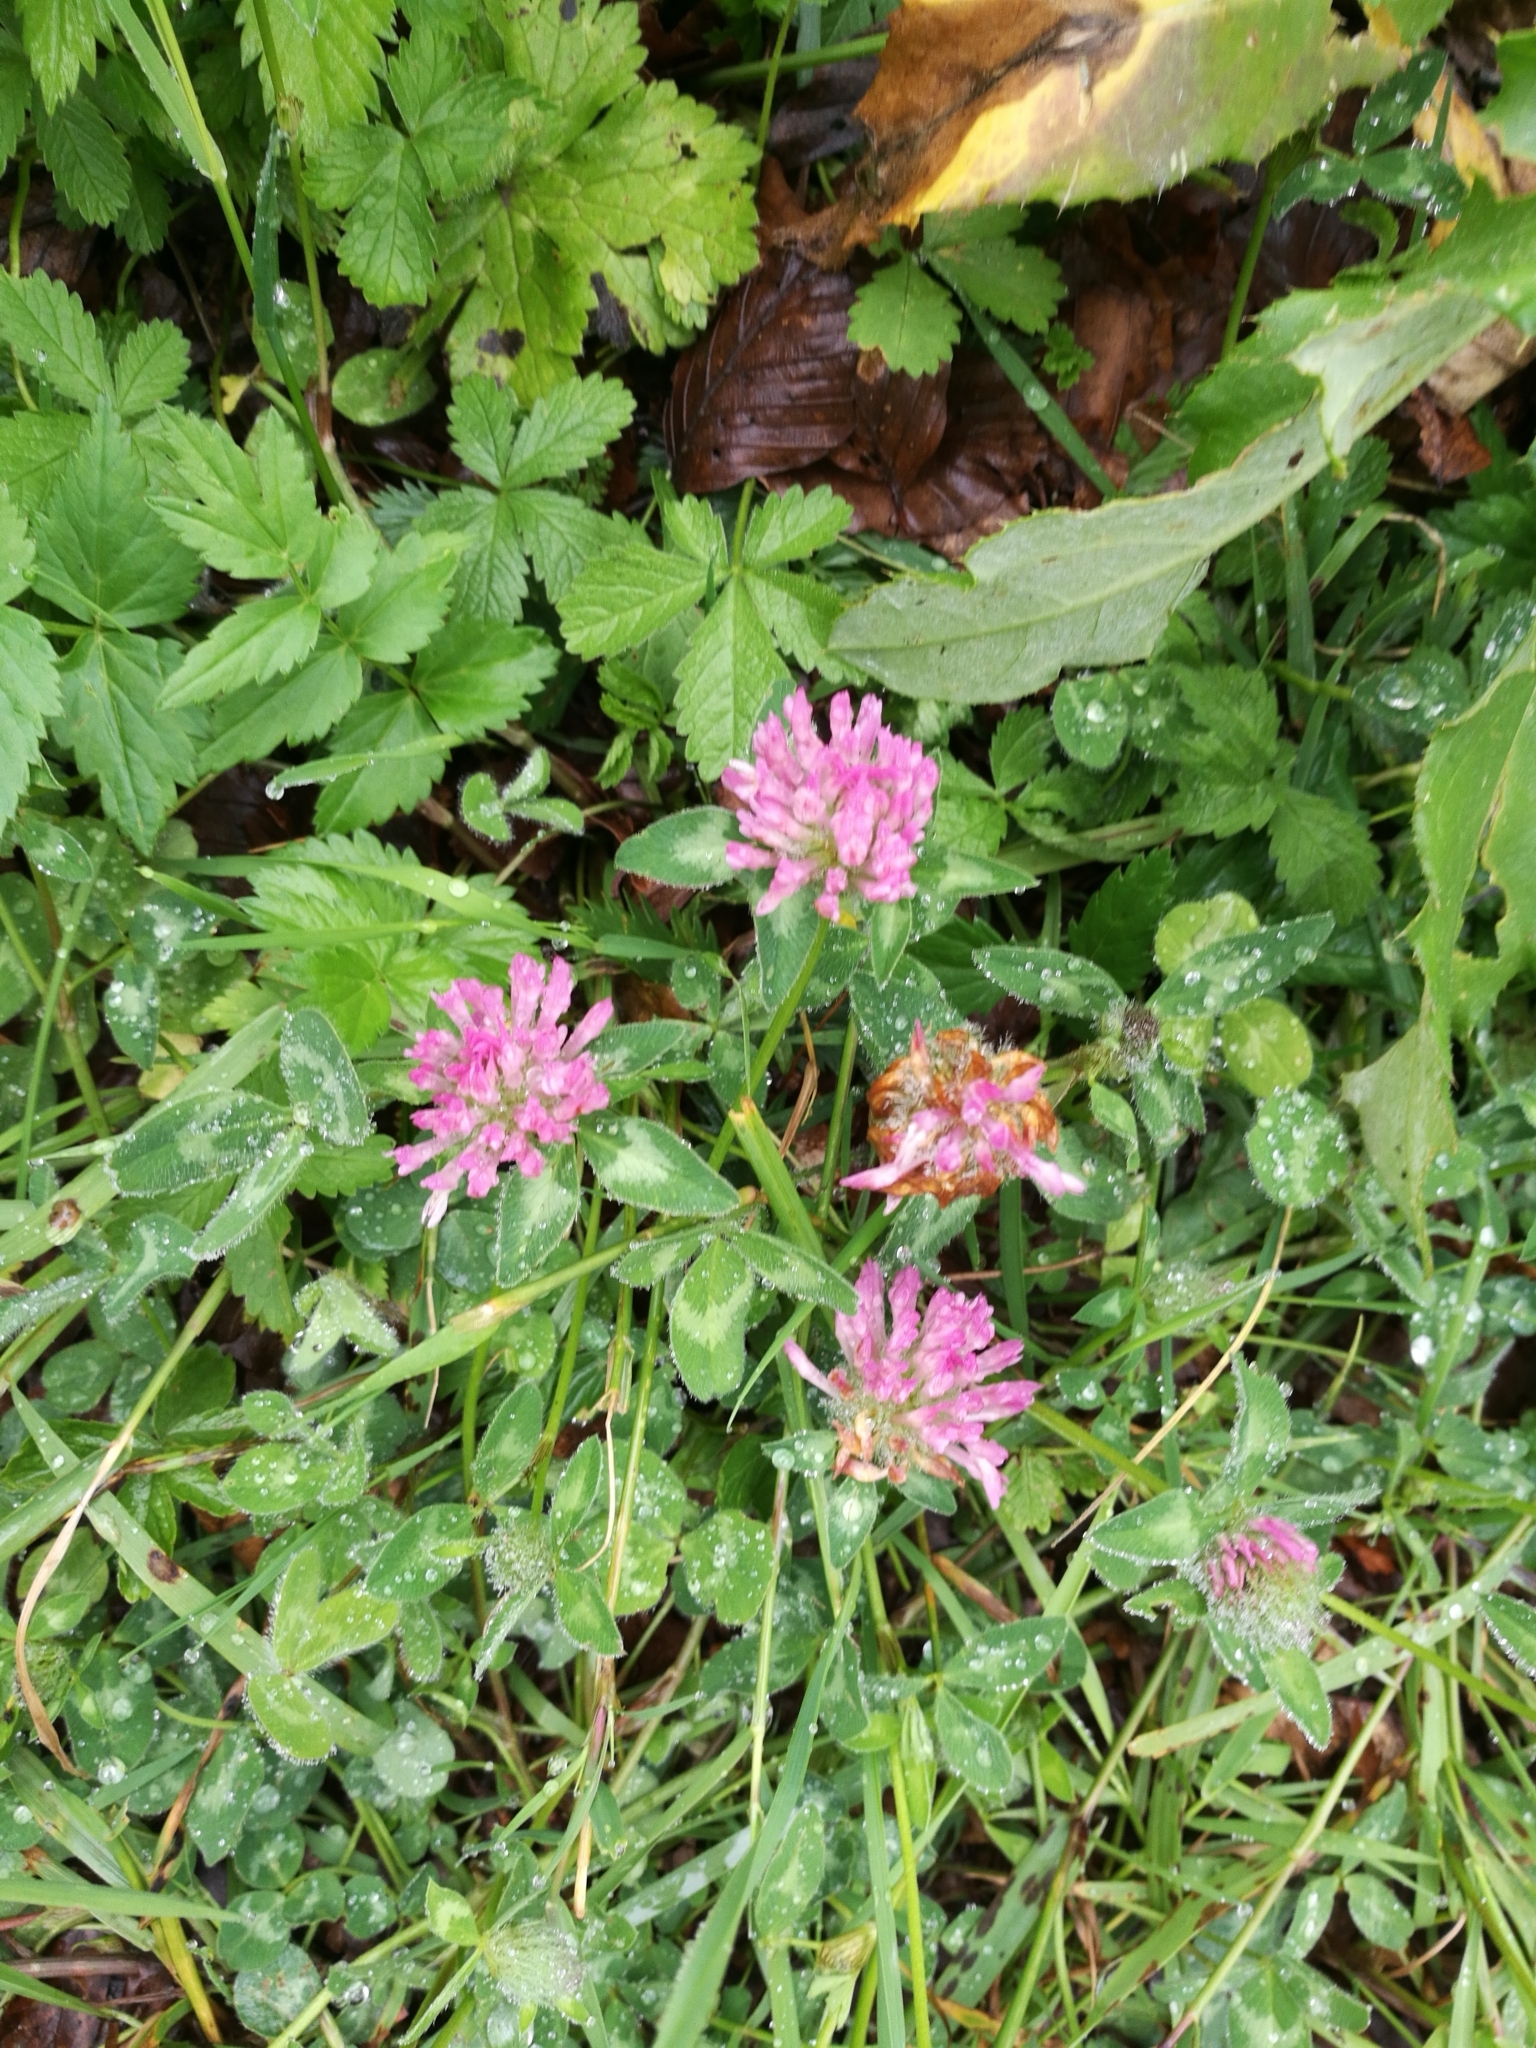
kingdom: Plantae
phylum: Tracheophyta
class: Magnoliopsida
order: Fabales
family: Fabaceae
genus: Trifolium
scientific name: Trifolium pratense
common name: Red clover
